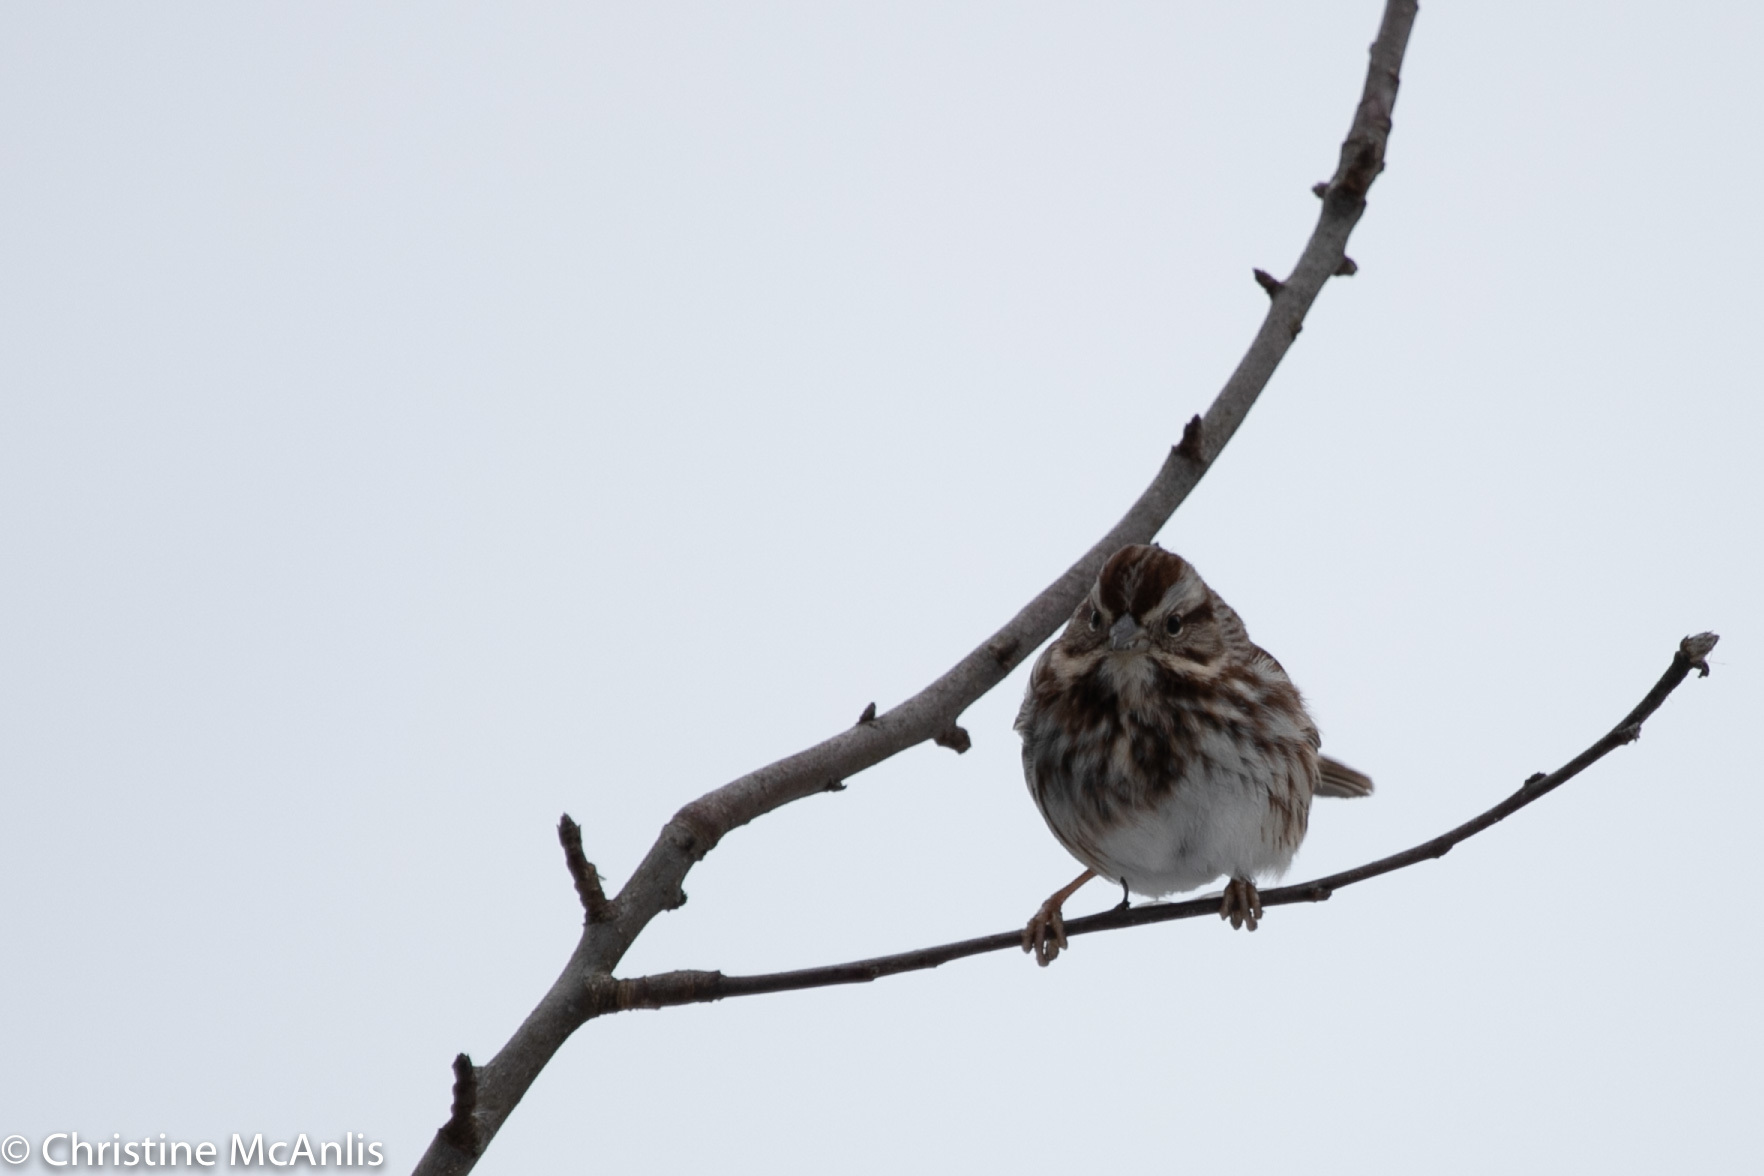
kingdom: Animalia
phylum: Chordata
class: Aves
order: Passeriformes
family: Passerellidae
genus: Melospiza
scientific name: Melospiza melodia
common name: Song sparrow
